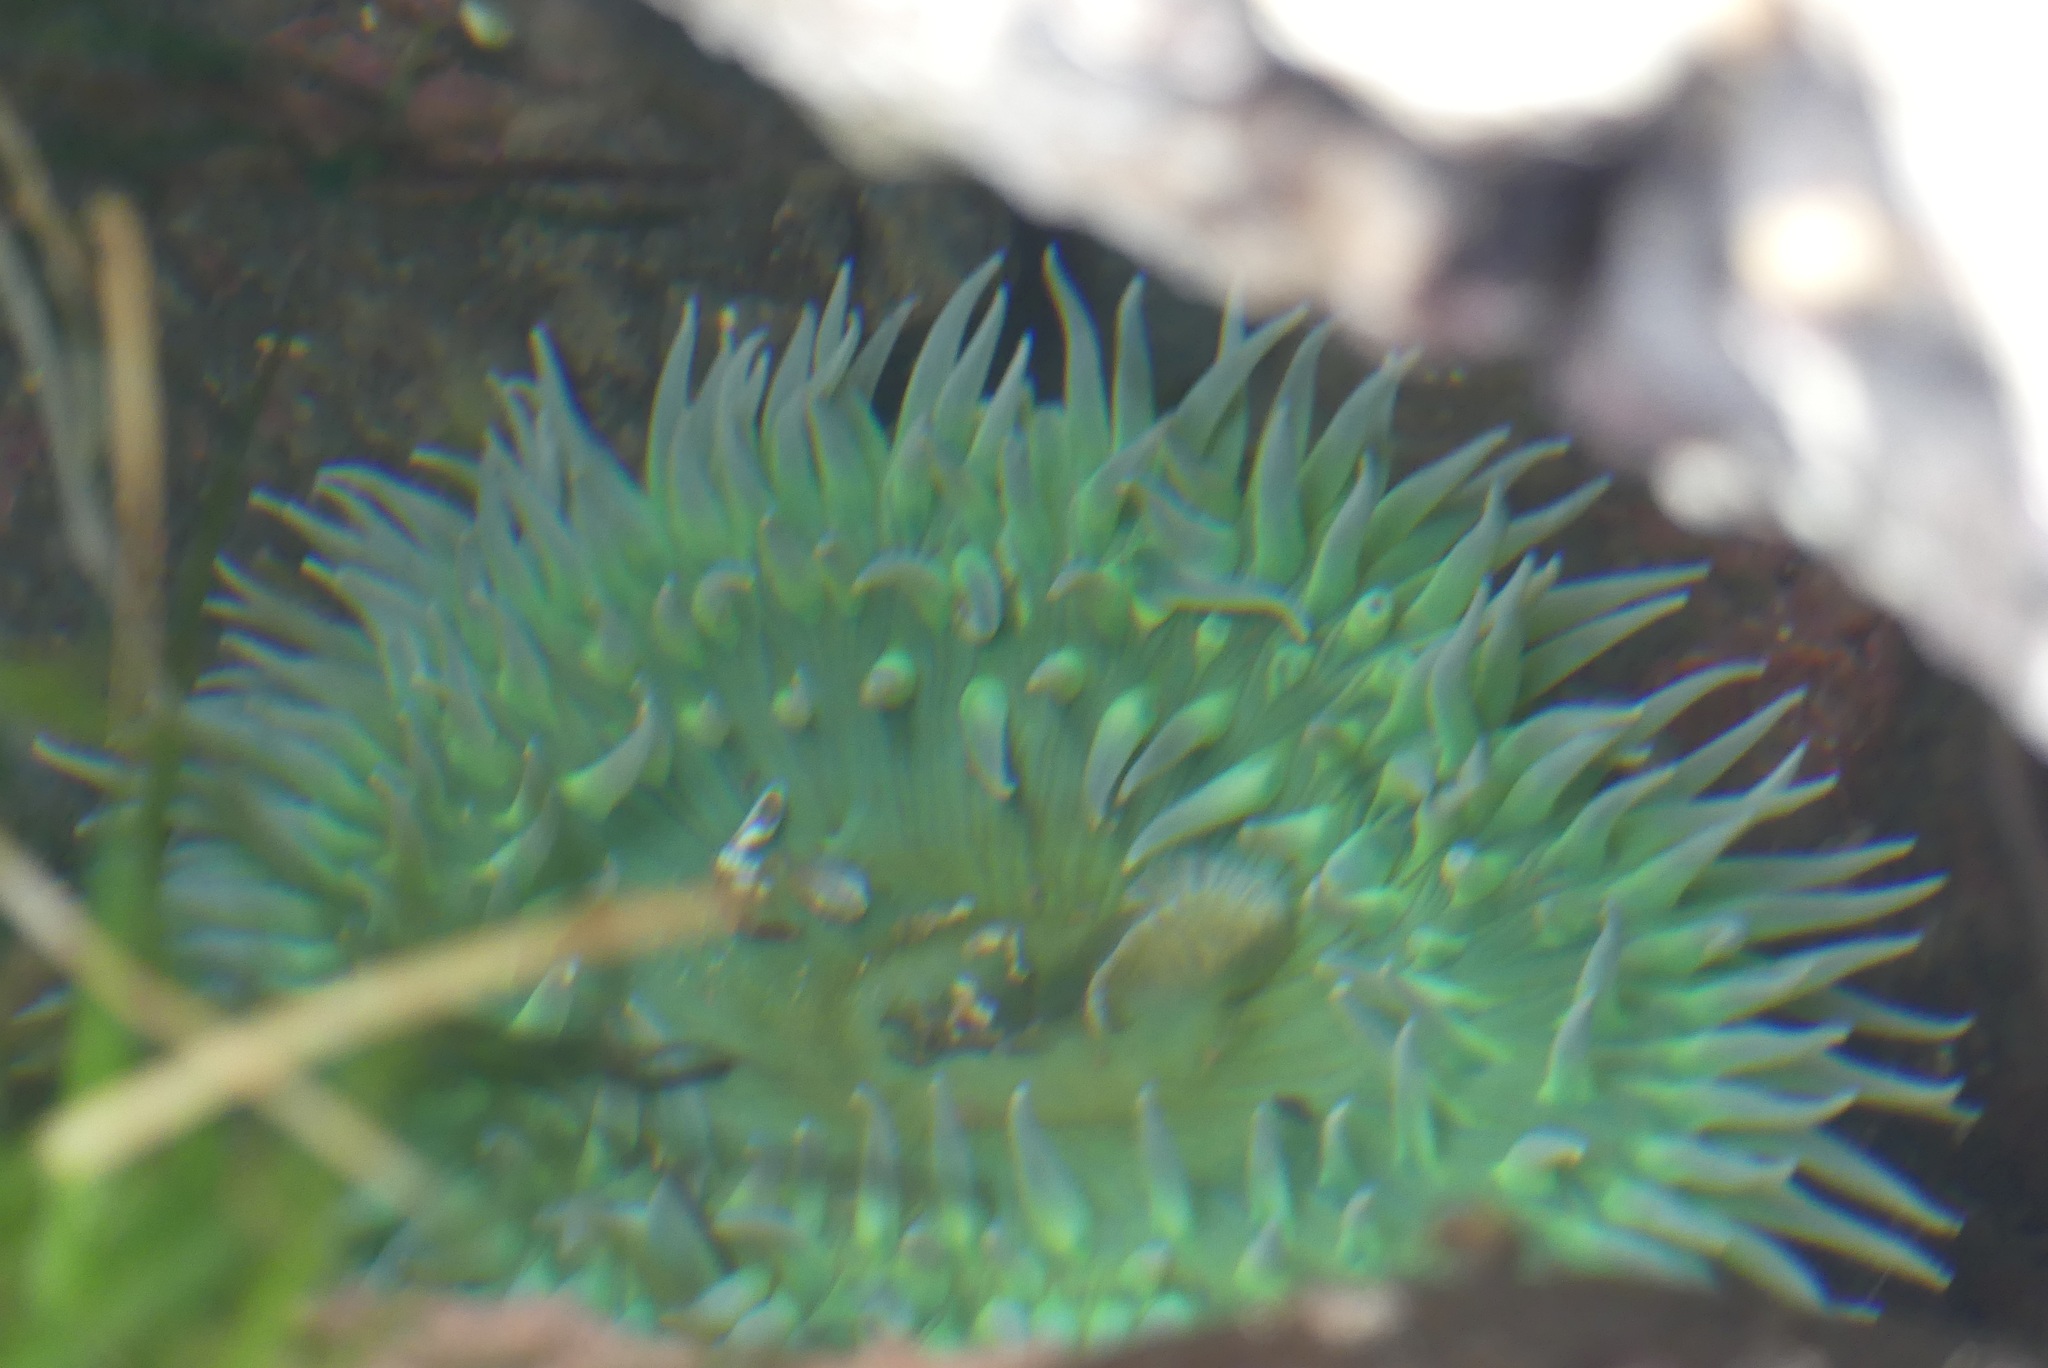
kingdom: Animalia
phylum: Cnidaria
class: Anthozoa
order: Actiniaria
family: Actiniidae
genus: Anthopleura
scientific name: Anthopleura xanthogrammica
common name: Giant green anemone
